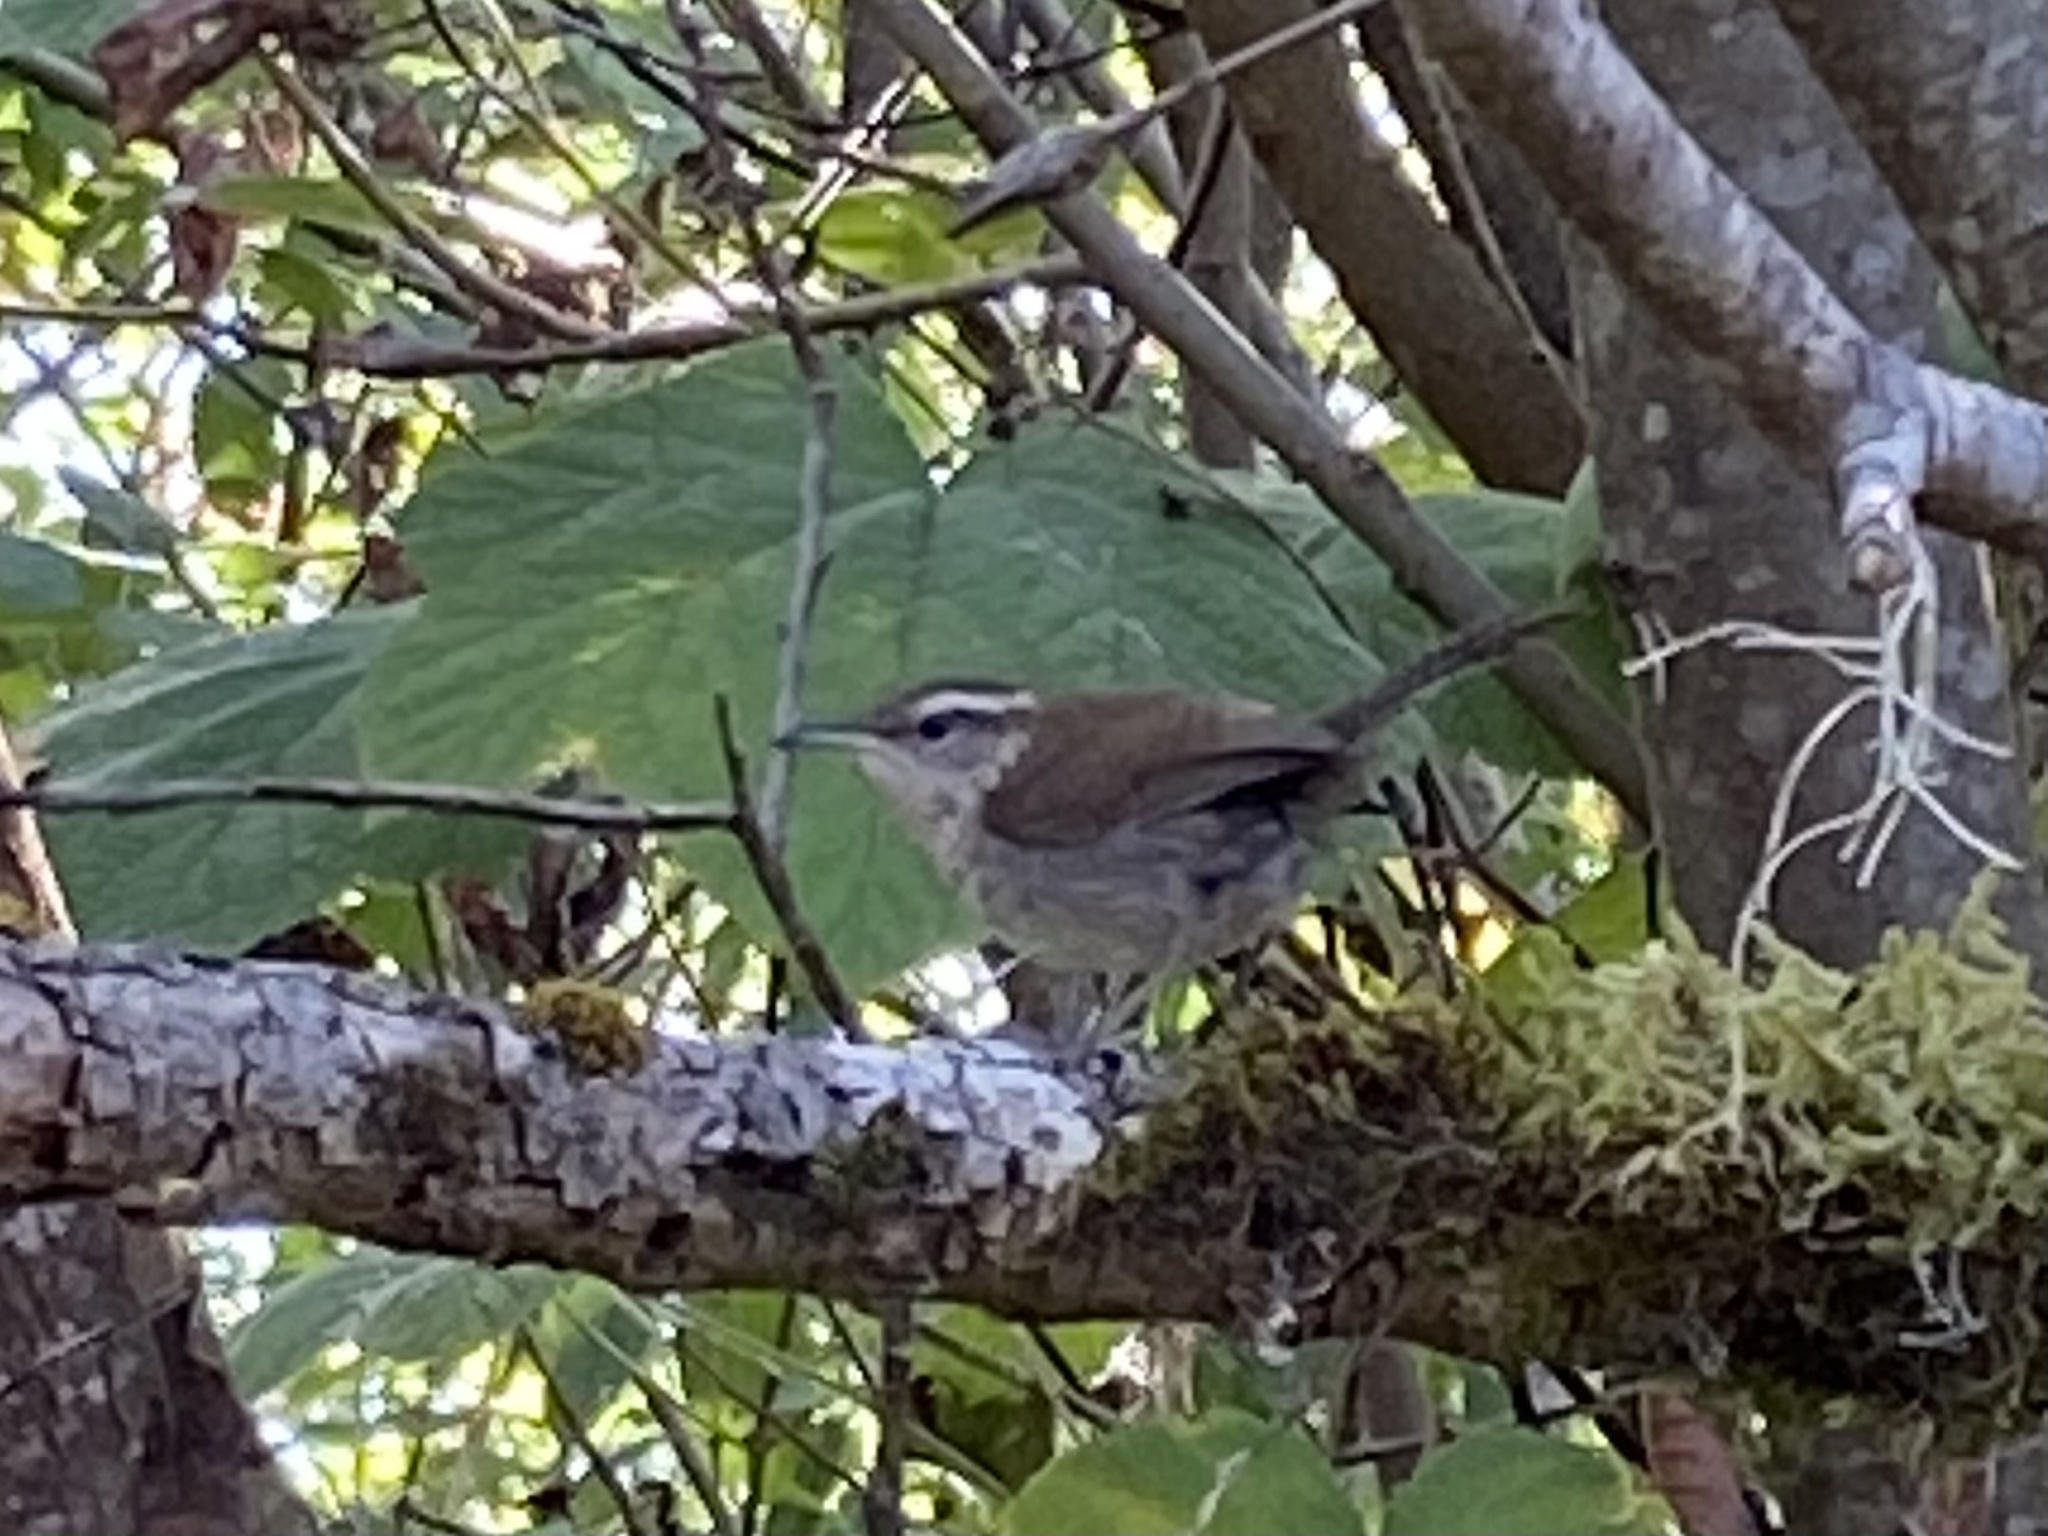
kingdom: Animalia
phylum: Chordata
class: Aves
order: Passeriformes
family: Troglodytidae
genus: Thryomanes
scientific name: Thryomanes bewickii
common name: Bewick's wren
